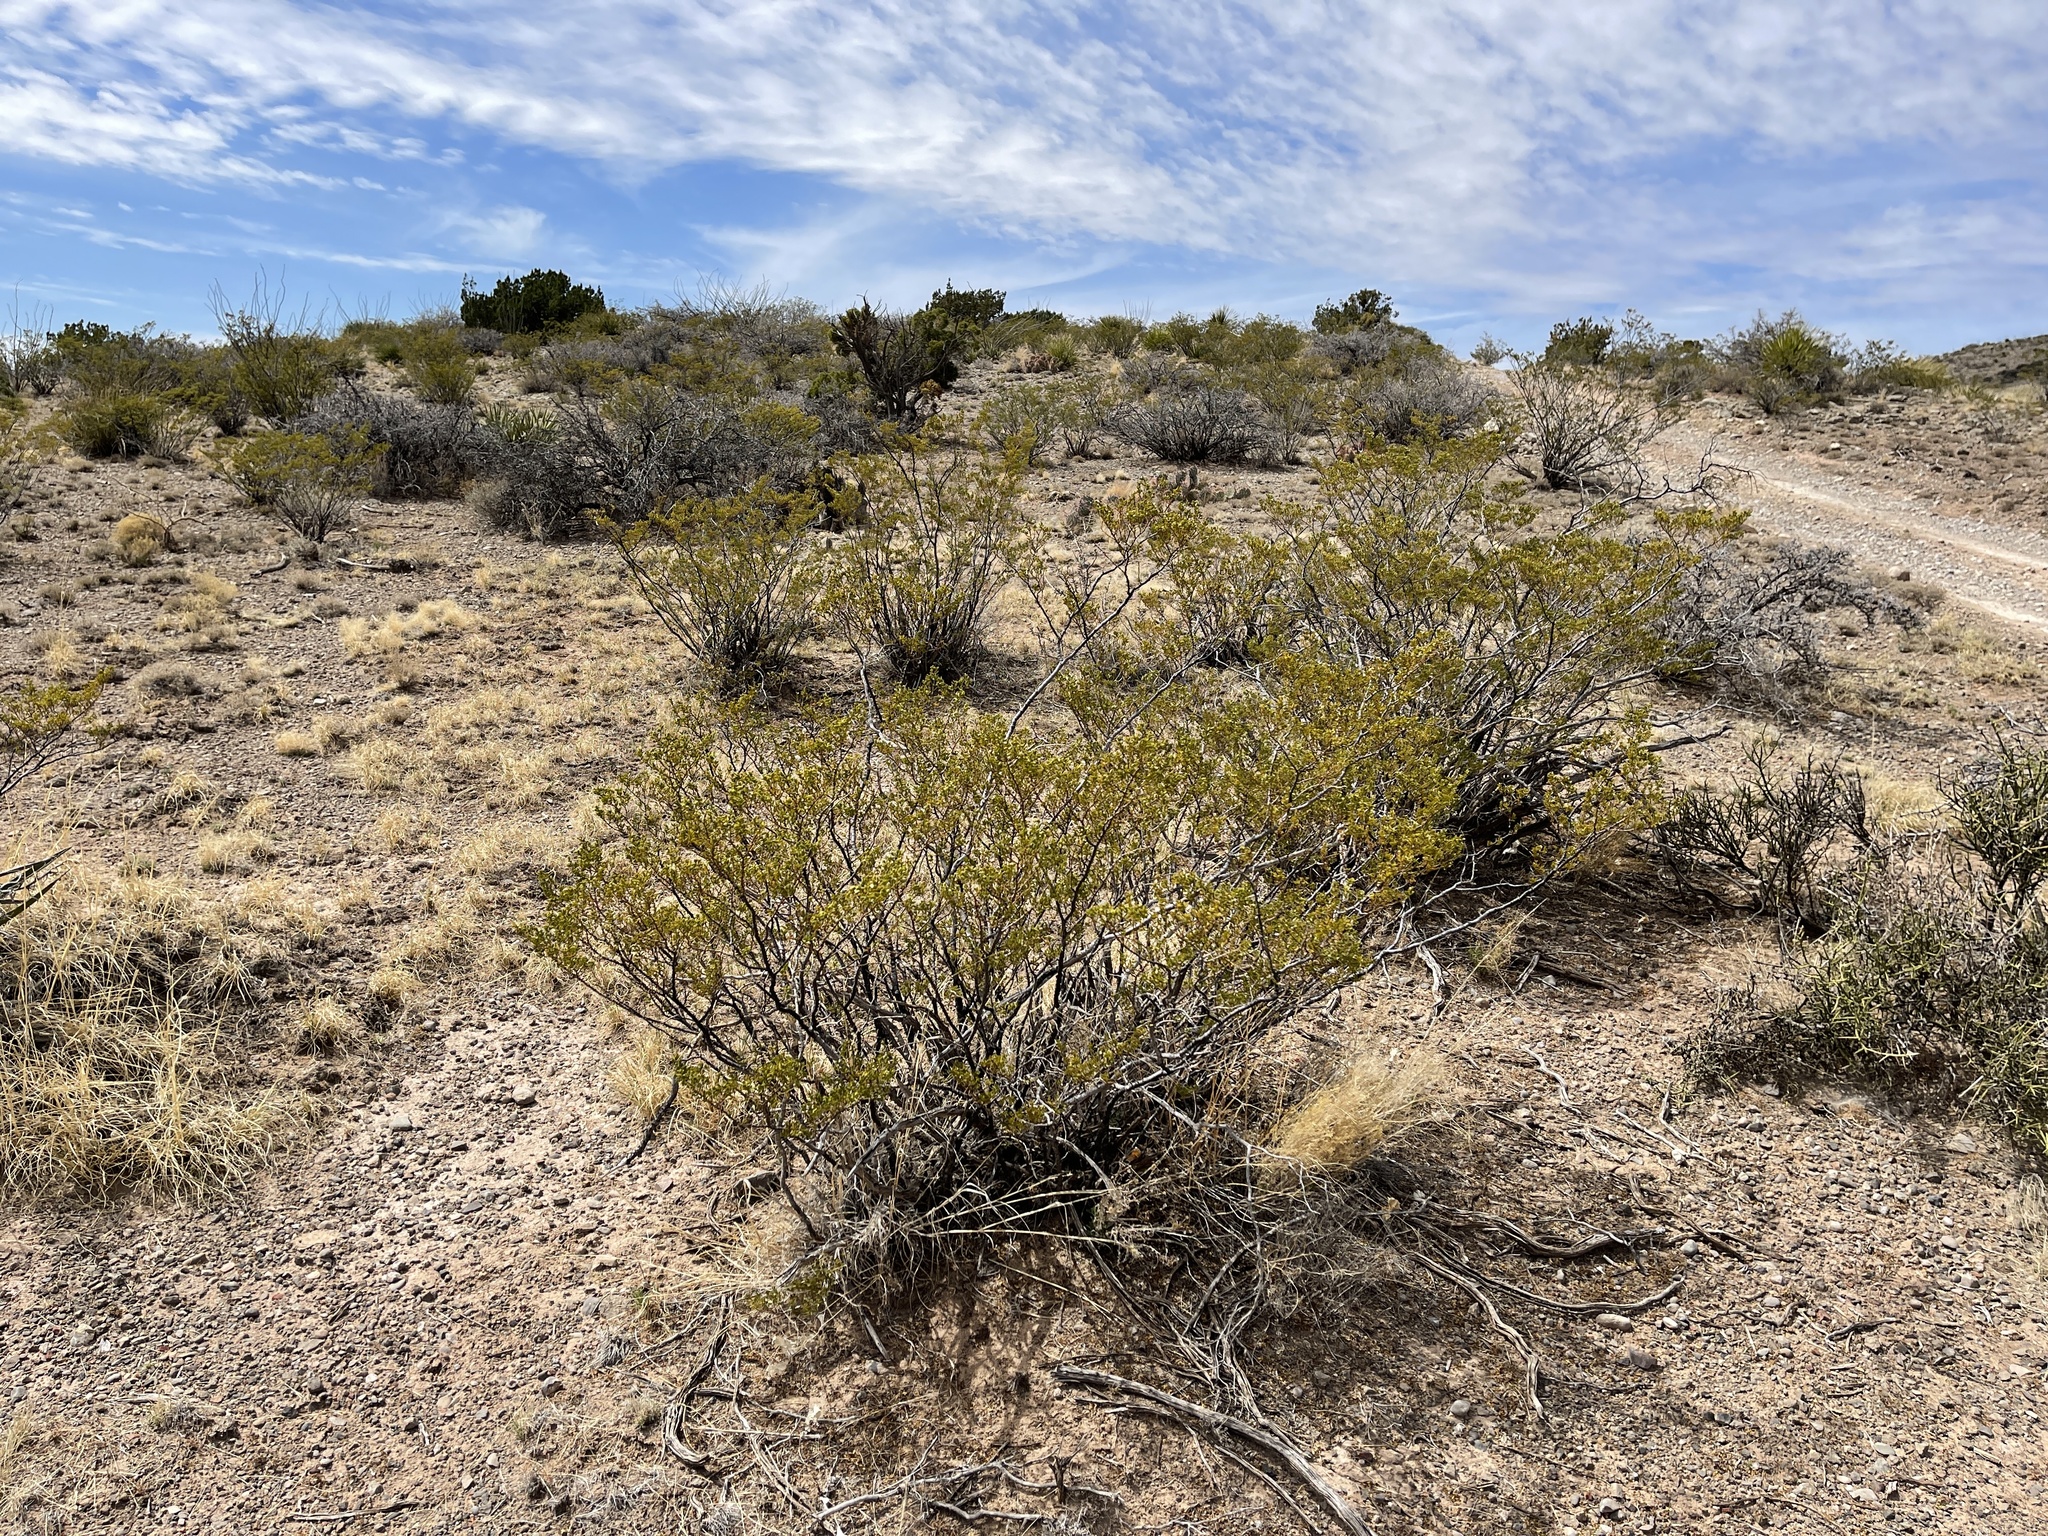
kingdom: Plantae
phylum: Tracheophyta
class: Magnoliopsida
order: Zygophyllales
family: Zygophyllaceae
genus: Larrea
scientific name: Larrea tridentata
